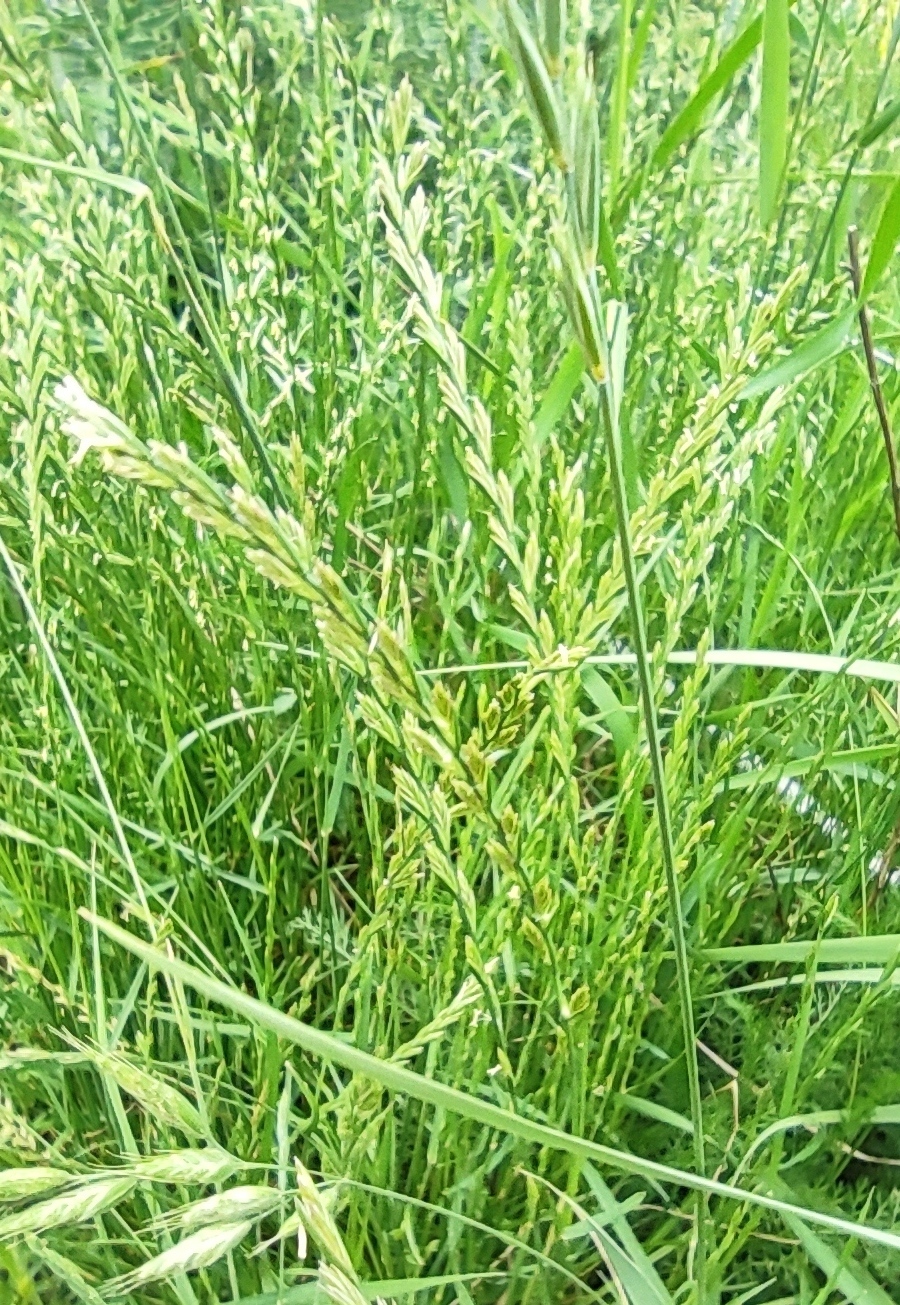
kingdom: Plantae
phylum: Tracheophyta
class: Liliopsida
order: Poales
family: Poaceae
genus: Lolium
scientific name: Lolium perenne
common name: Perennial ryegrass
